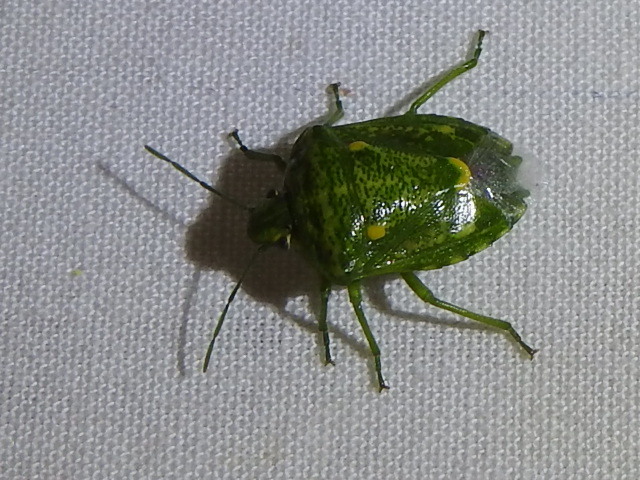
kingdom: Animalia
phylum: Arthropoda
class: Insecta
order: Hemiptera
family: Pentatomidae
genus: Banasa
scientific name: Banasa euchlora
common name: Cedar berry bug
